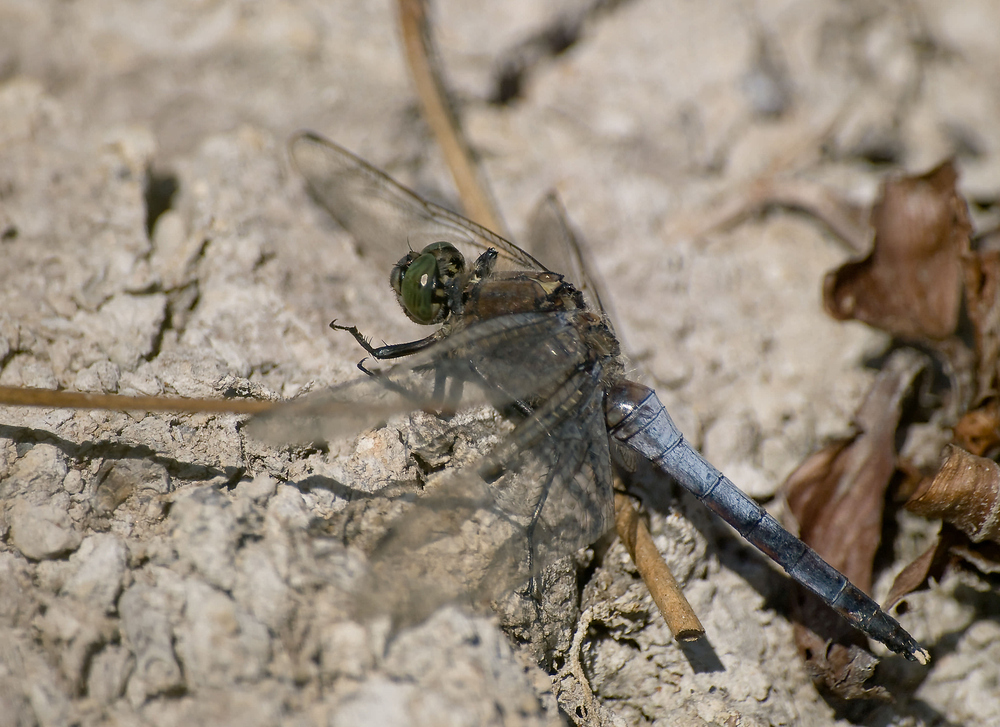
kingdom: Animalia
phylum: Arthropoda
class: Insecta
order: Odonata
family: Libellulidae
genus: Orthetrum
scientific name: Orthetrum cancellatum
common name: Black-tailed skimmer
